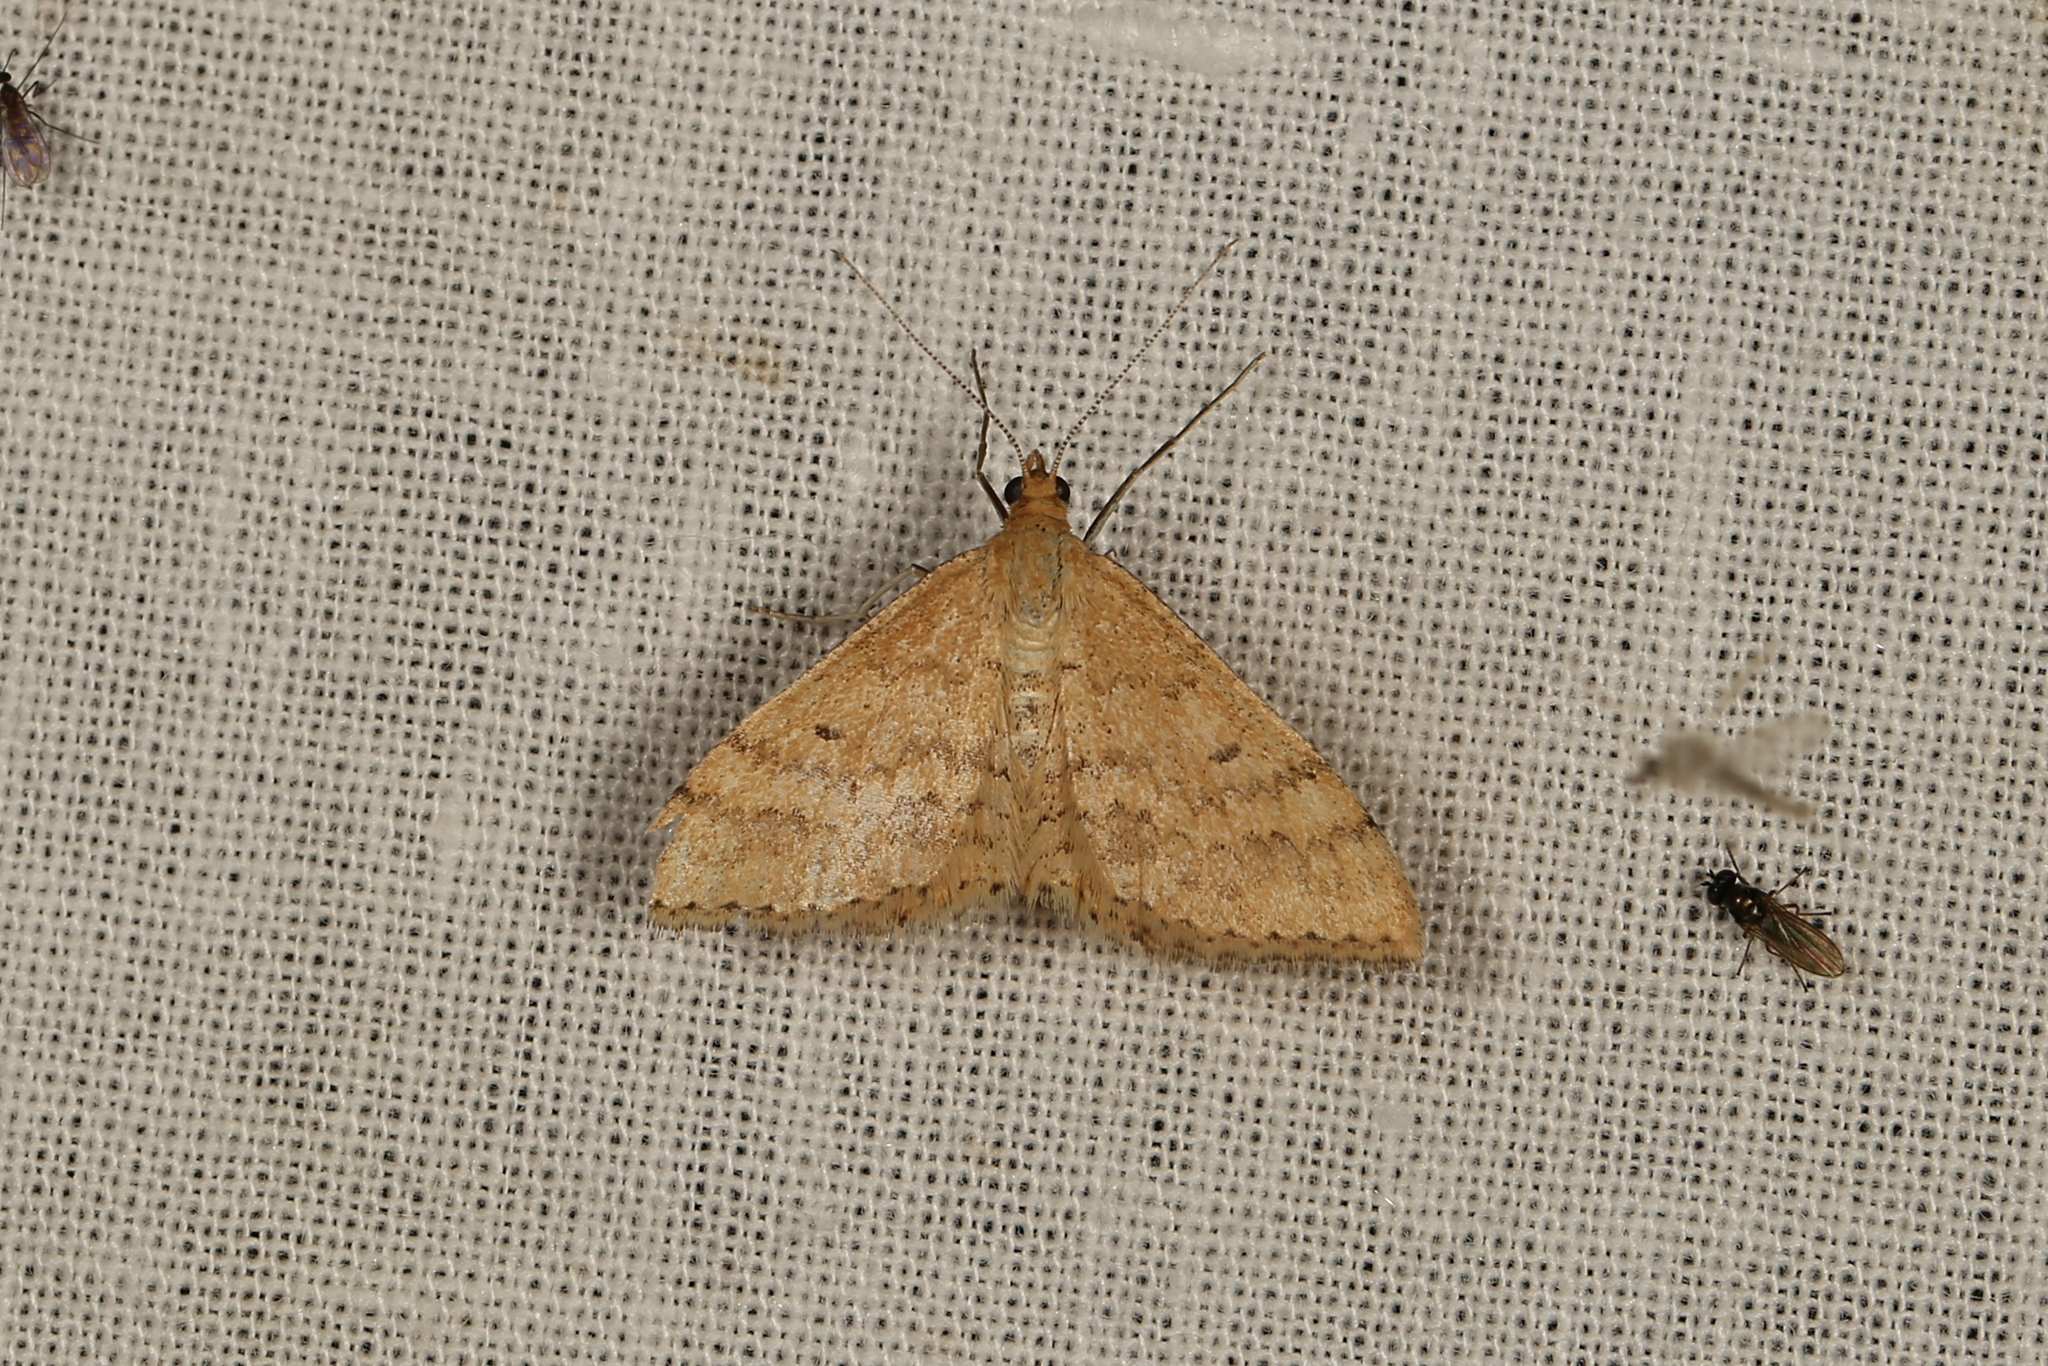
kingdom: Animalia
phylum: Arthropoda
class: Insecta
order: Lepidoptera
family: Geometridae
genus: Scopula
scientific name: Scopula rubraria
